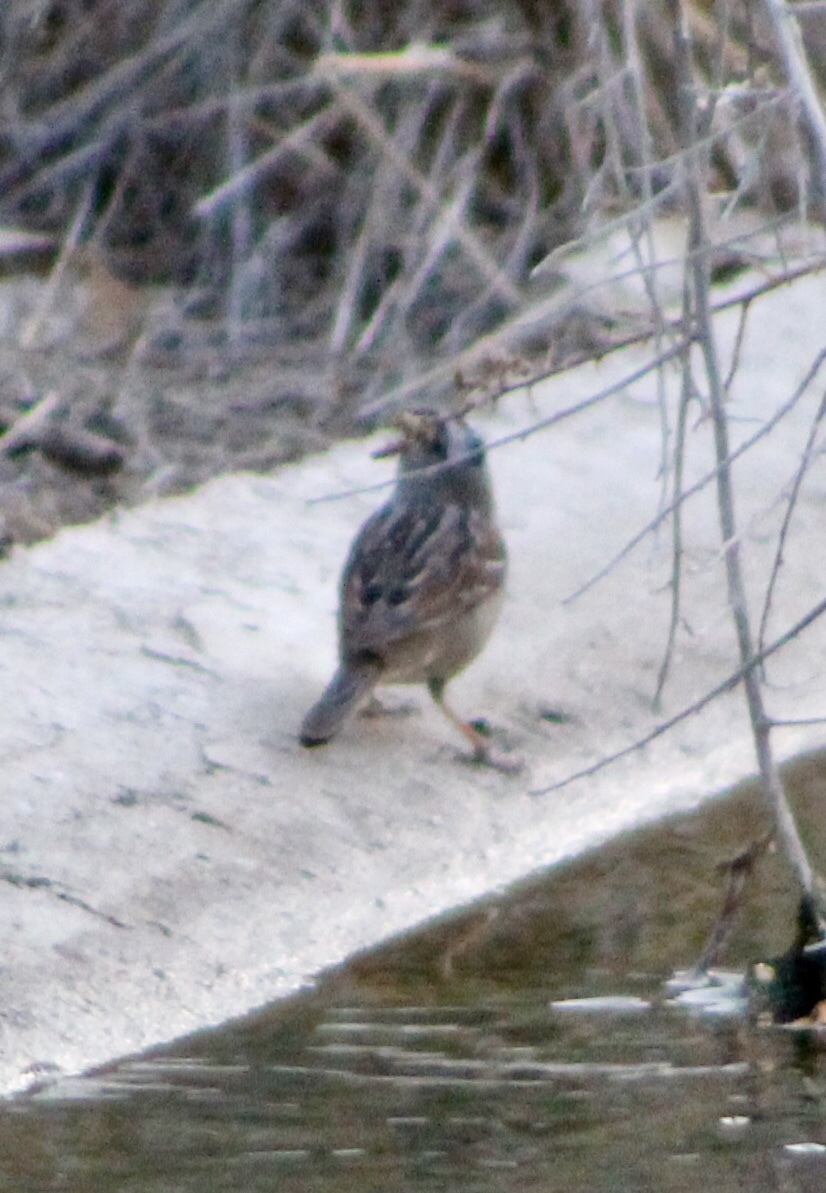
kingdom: Animalia
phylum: Chordata
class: Aves
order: Passeriformes
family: Passerellidae
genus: Zonotrichia
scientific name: Zonotrichia leucophrys
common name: White-crowned sparrow
